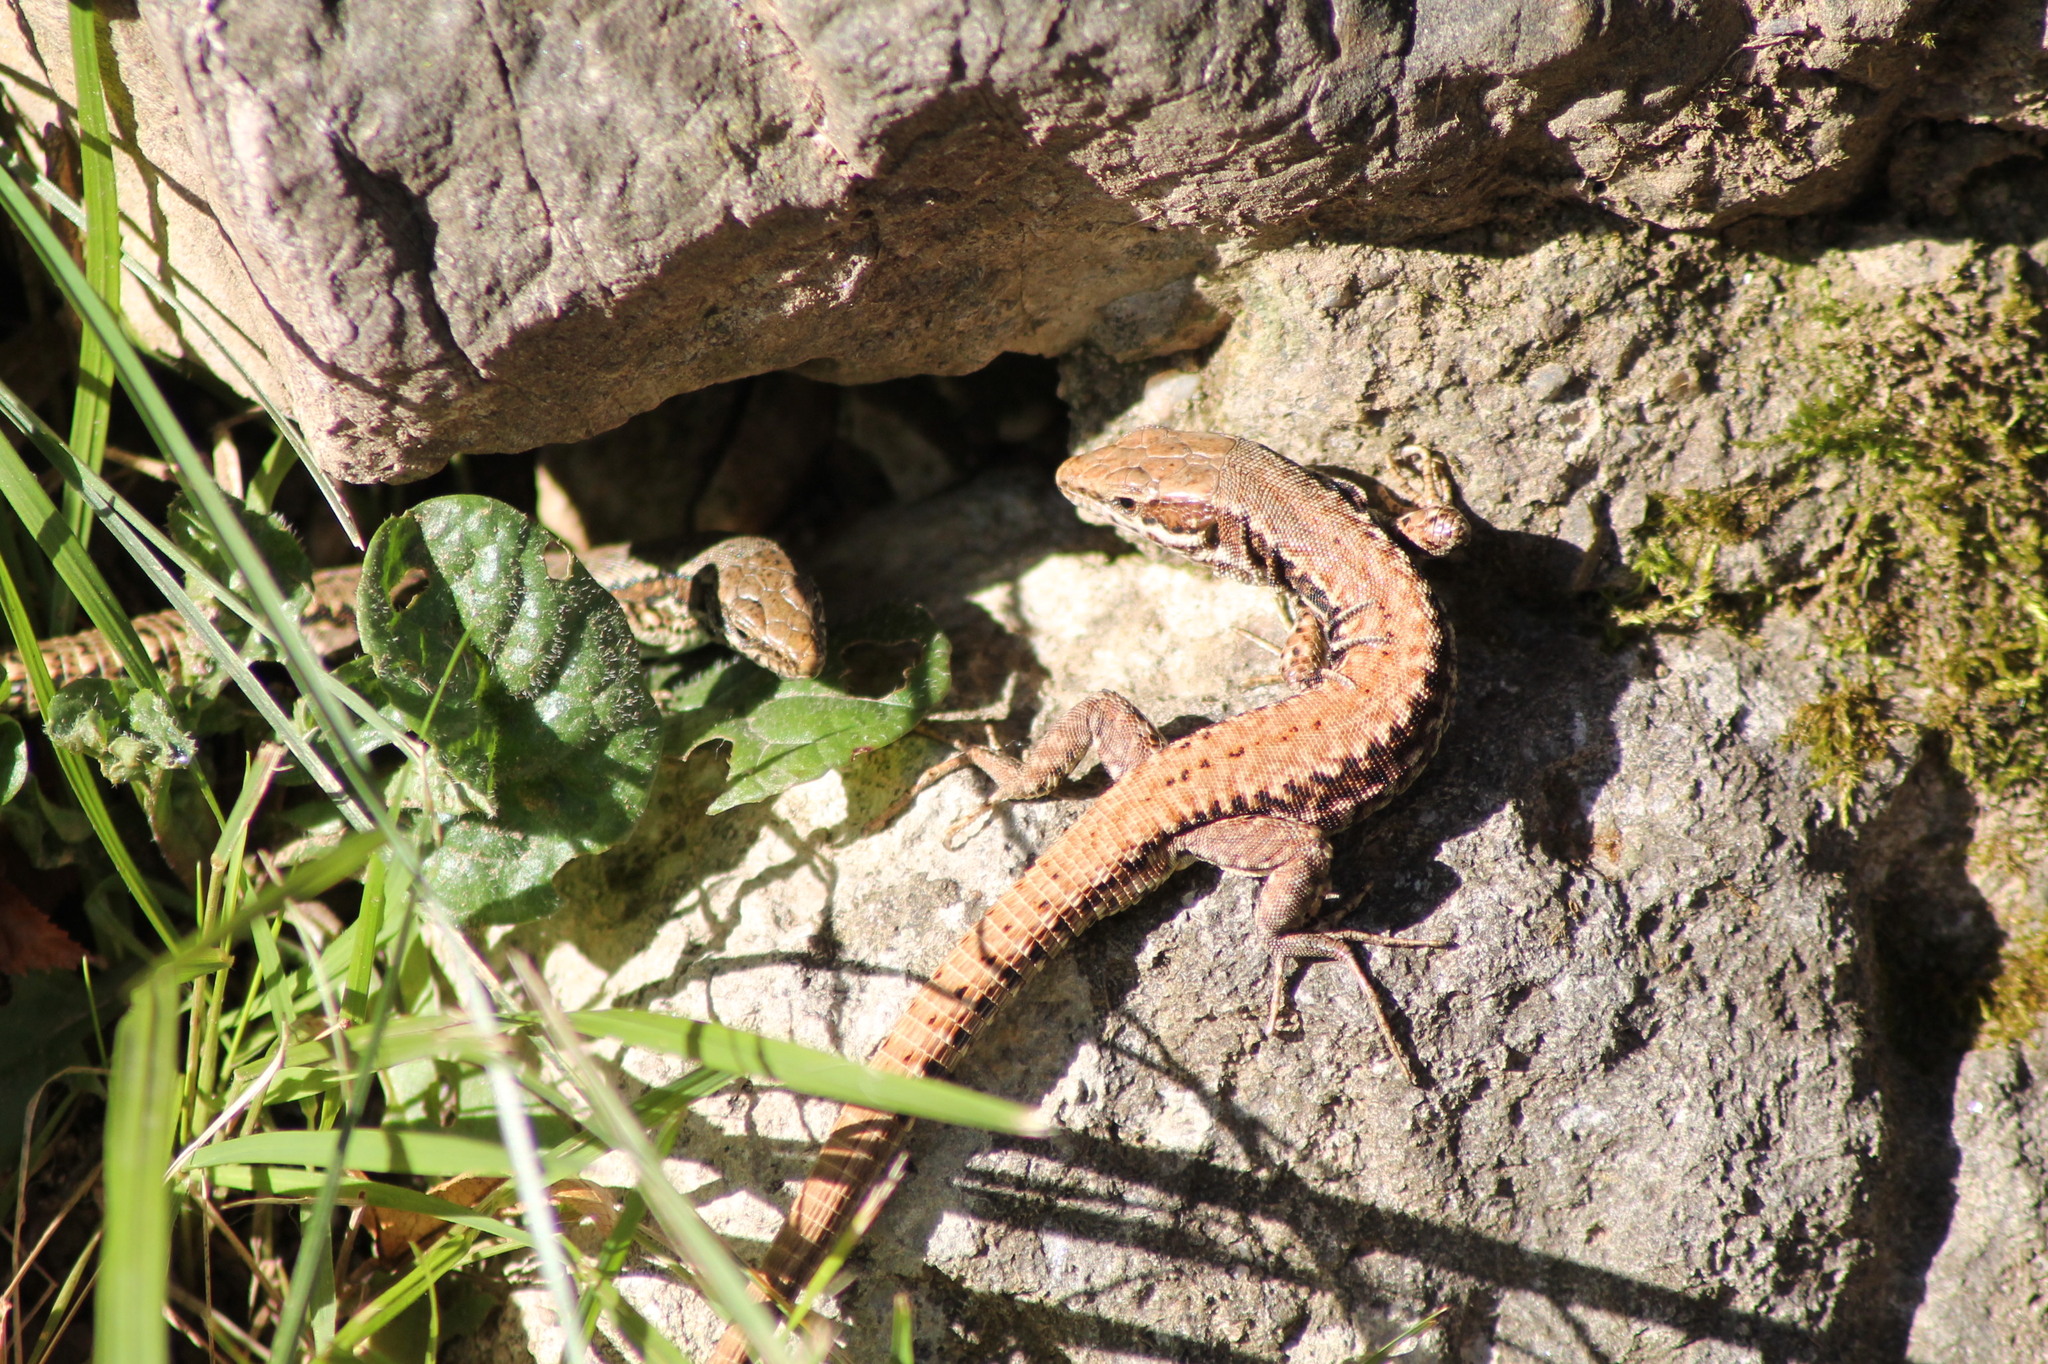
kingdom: Animalia
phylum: Chordata
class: Squamata
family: Lacertidae
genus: Podarcis
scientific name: Podarcis muralis
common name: Common wall lizard
